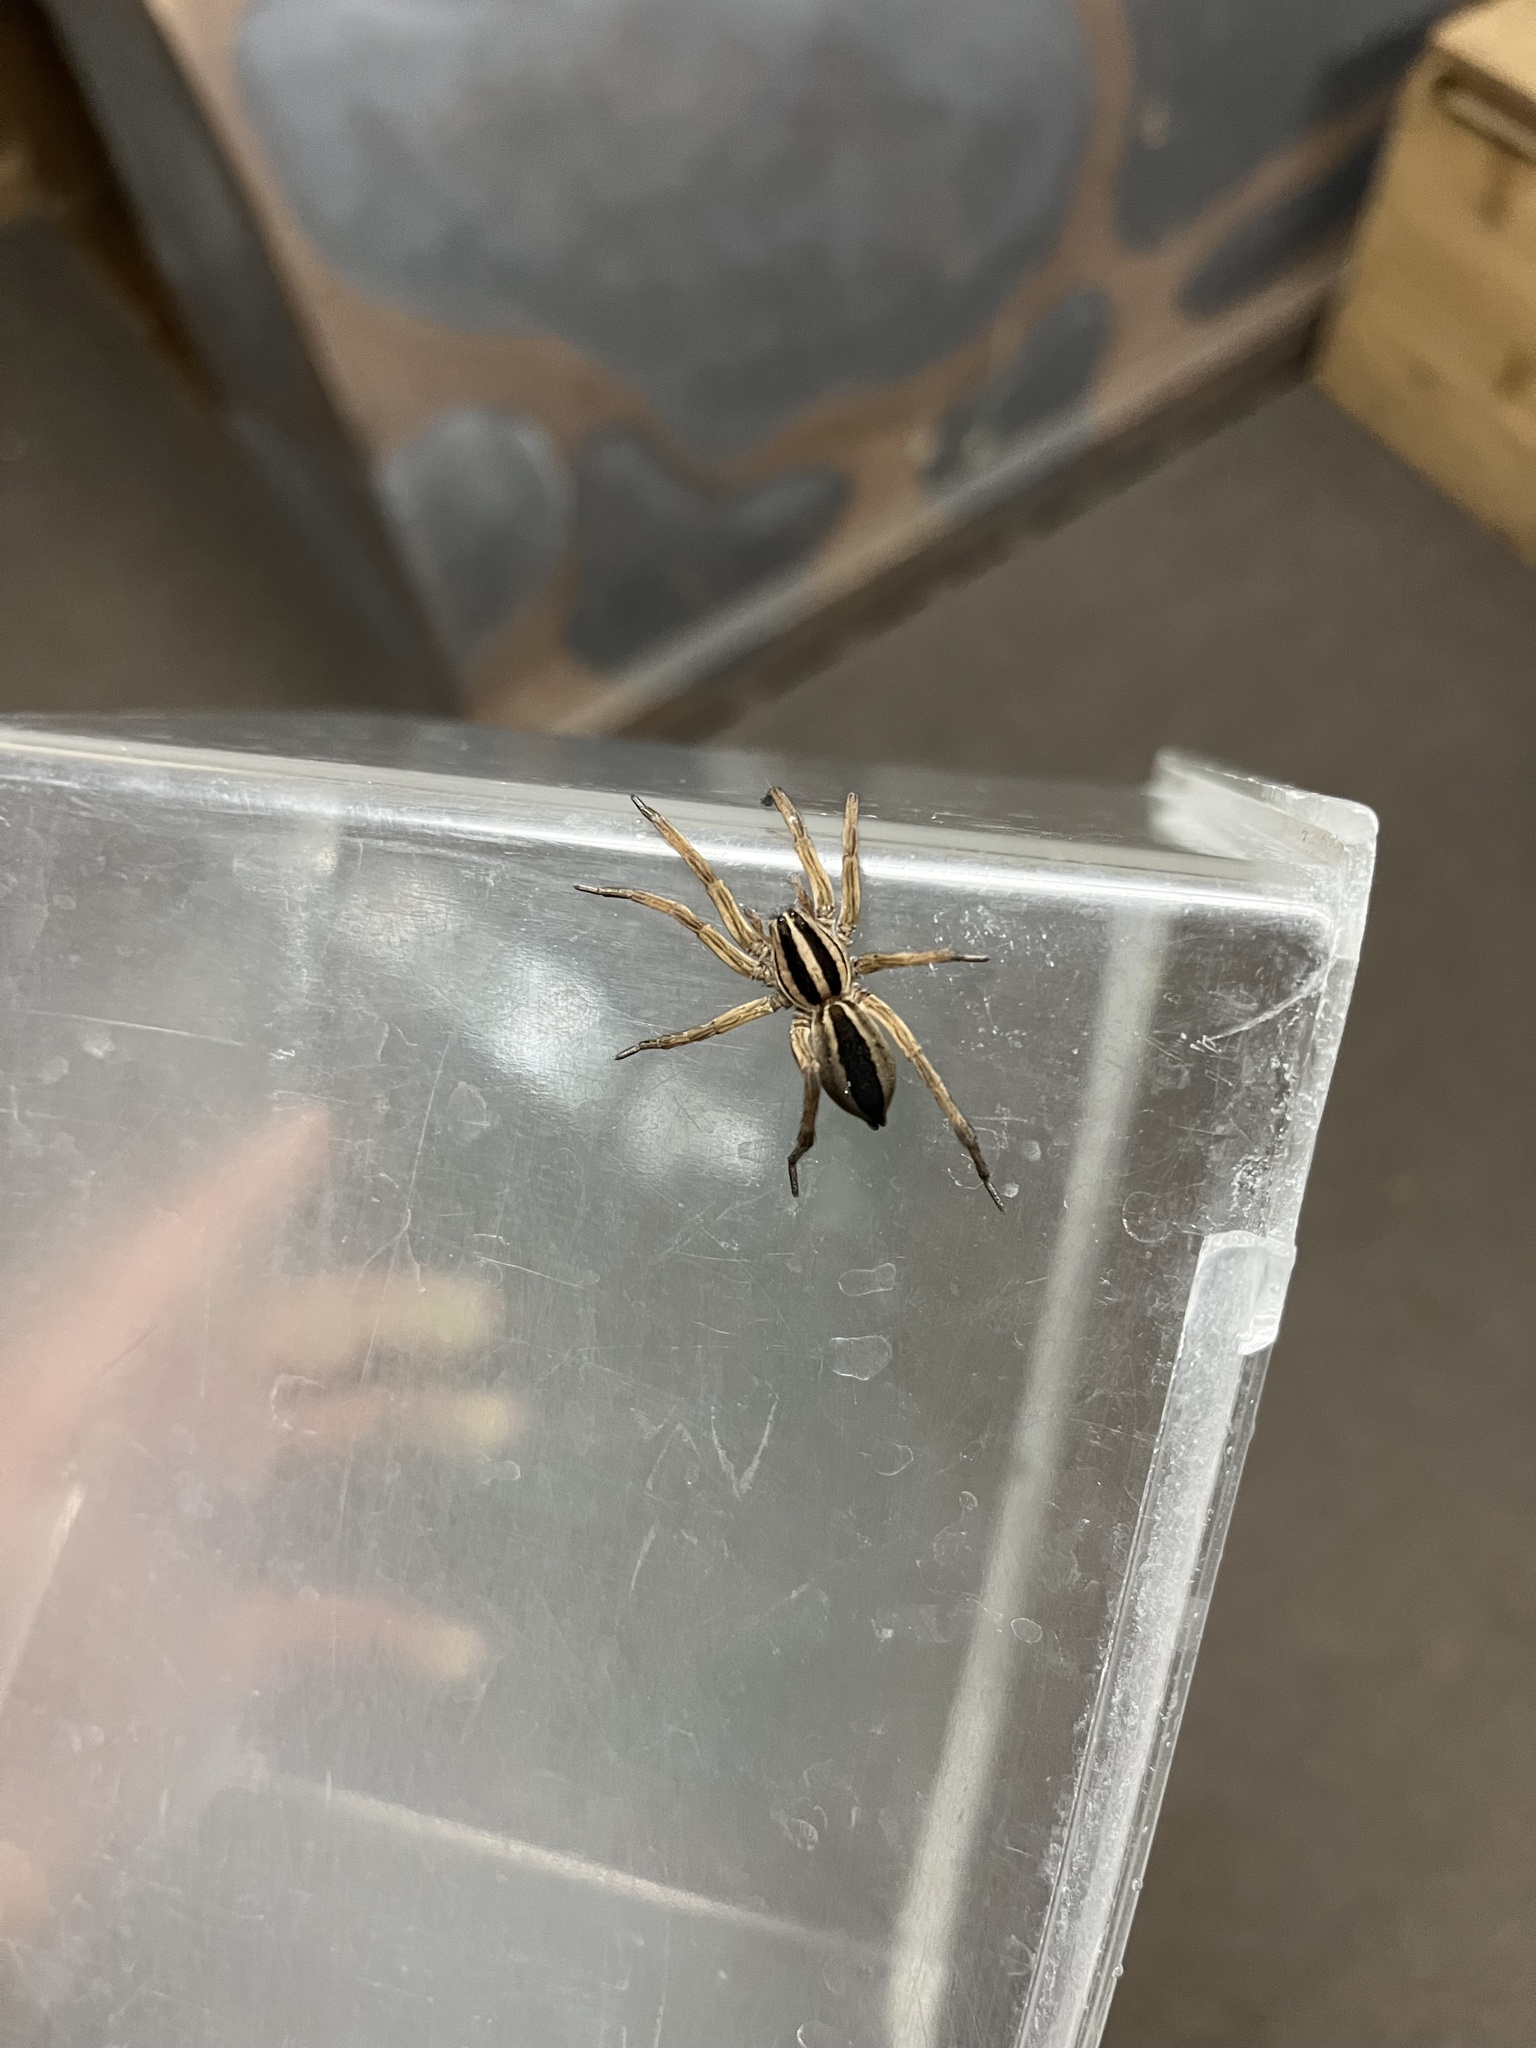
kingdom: Animalia
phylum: Arthropoda
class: Arachnida
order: Araneae
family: Lycosidae
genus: Rabidosa
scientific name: Rabidosa punctulata
